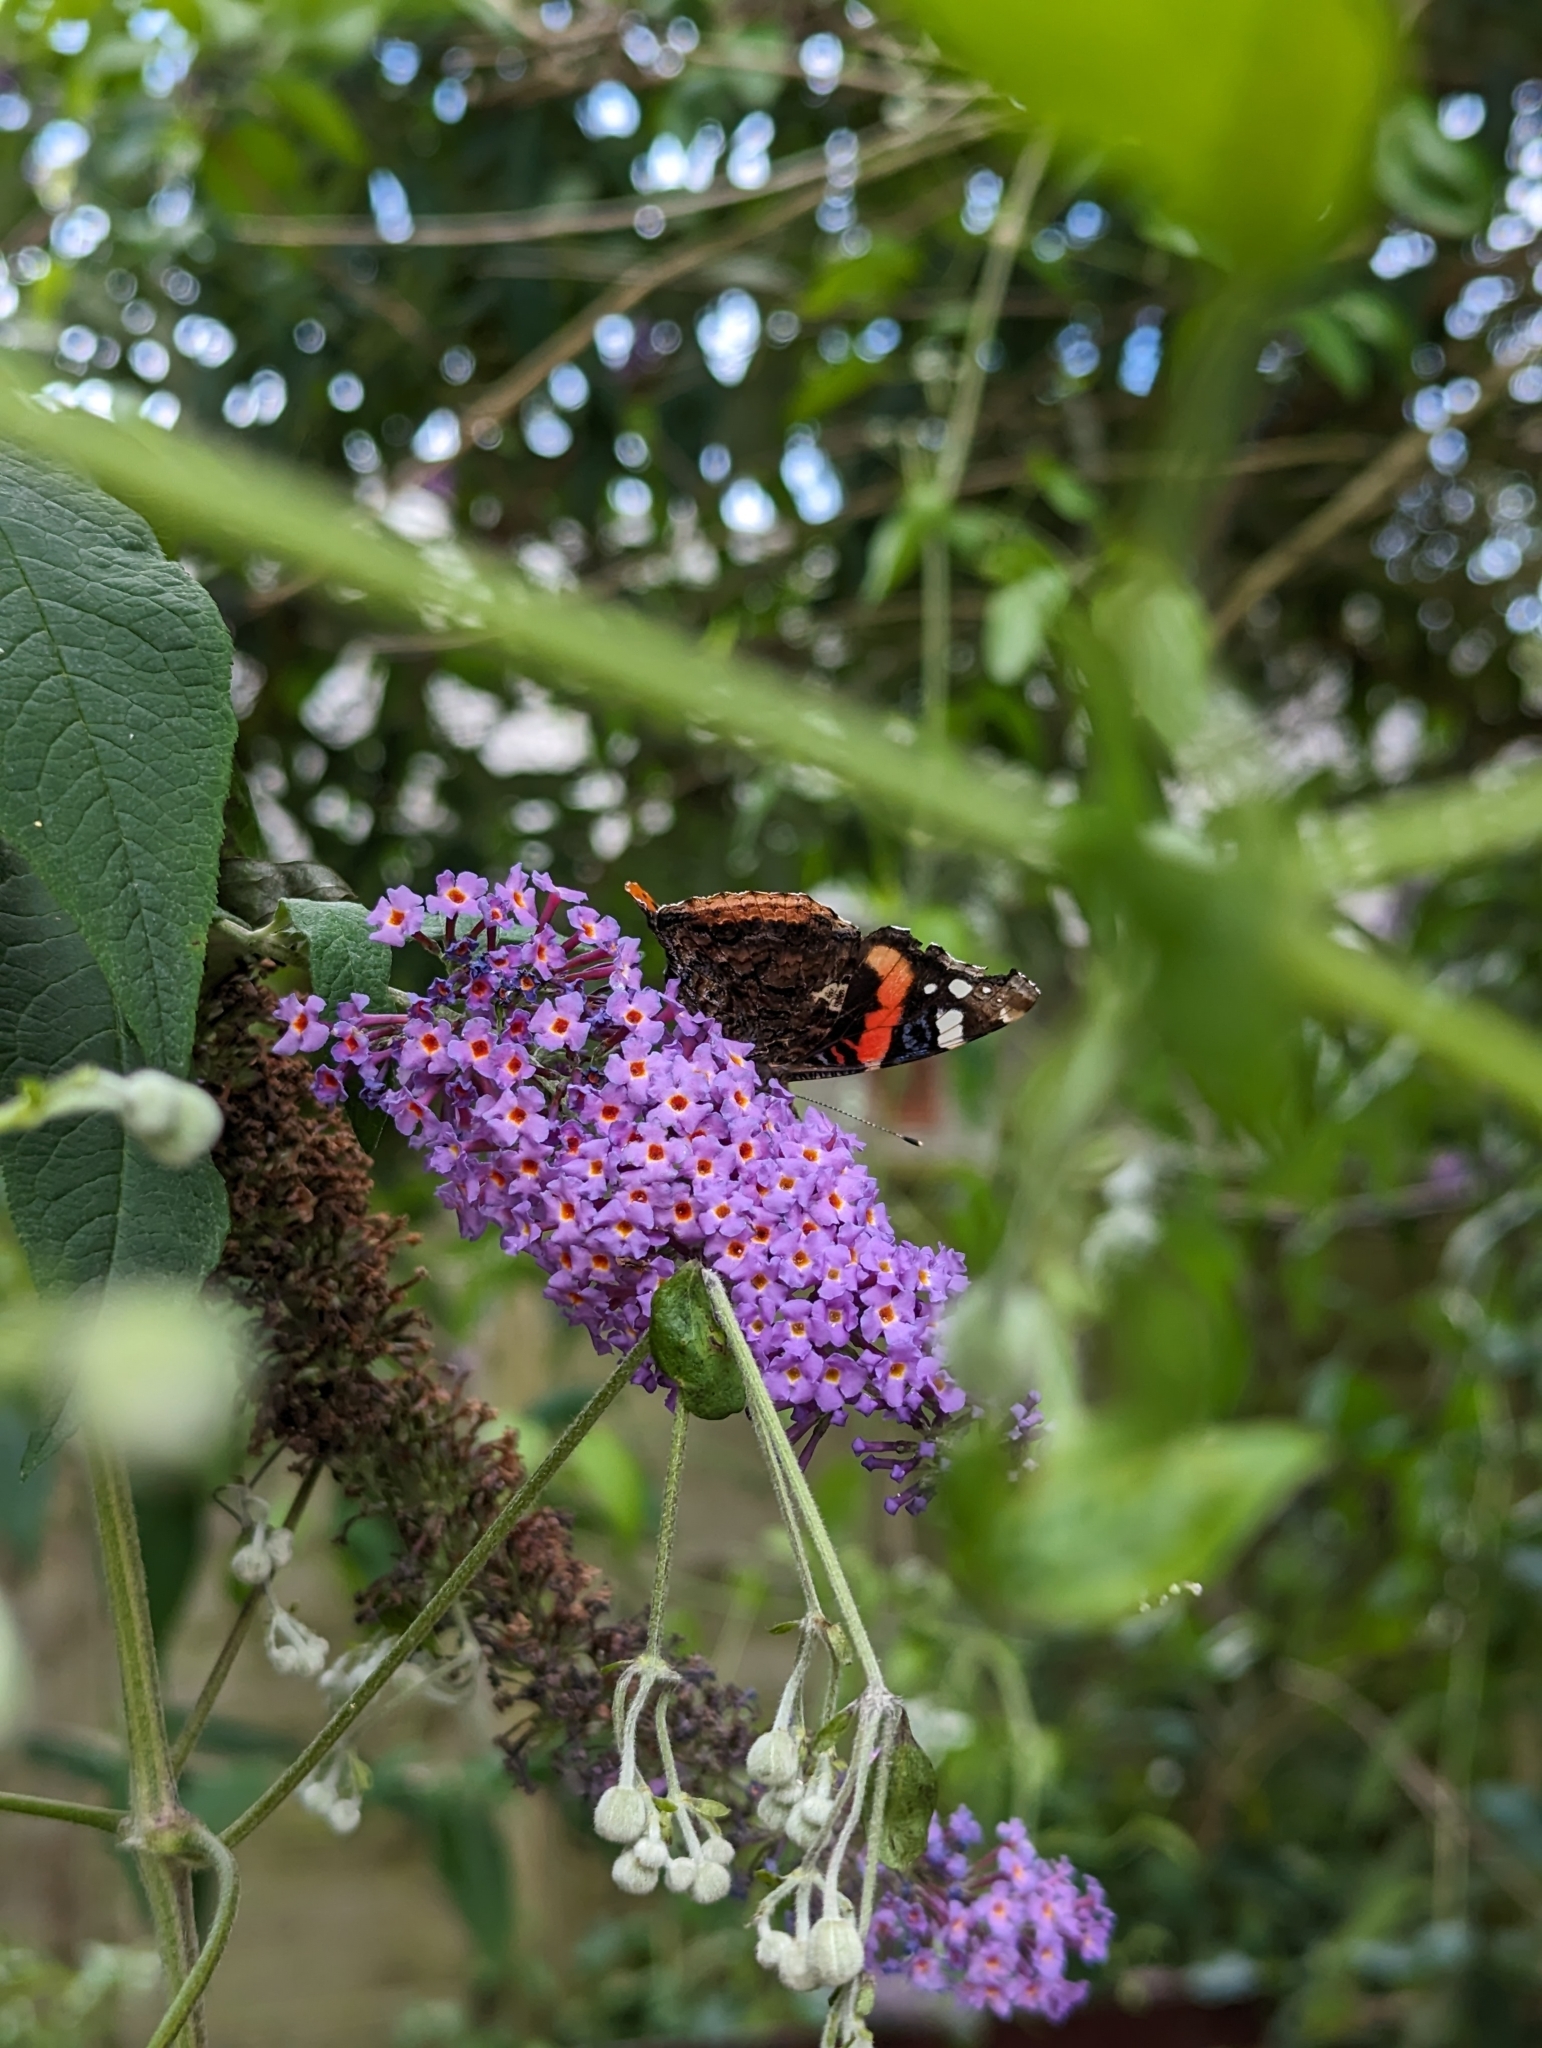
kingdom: Animalia
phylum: Arthropoda
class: Insecta
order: Lepidoptera
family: Nymphalidae
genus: Vanessa
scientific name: Vanessa atalanta
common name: Red admiral
